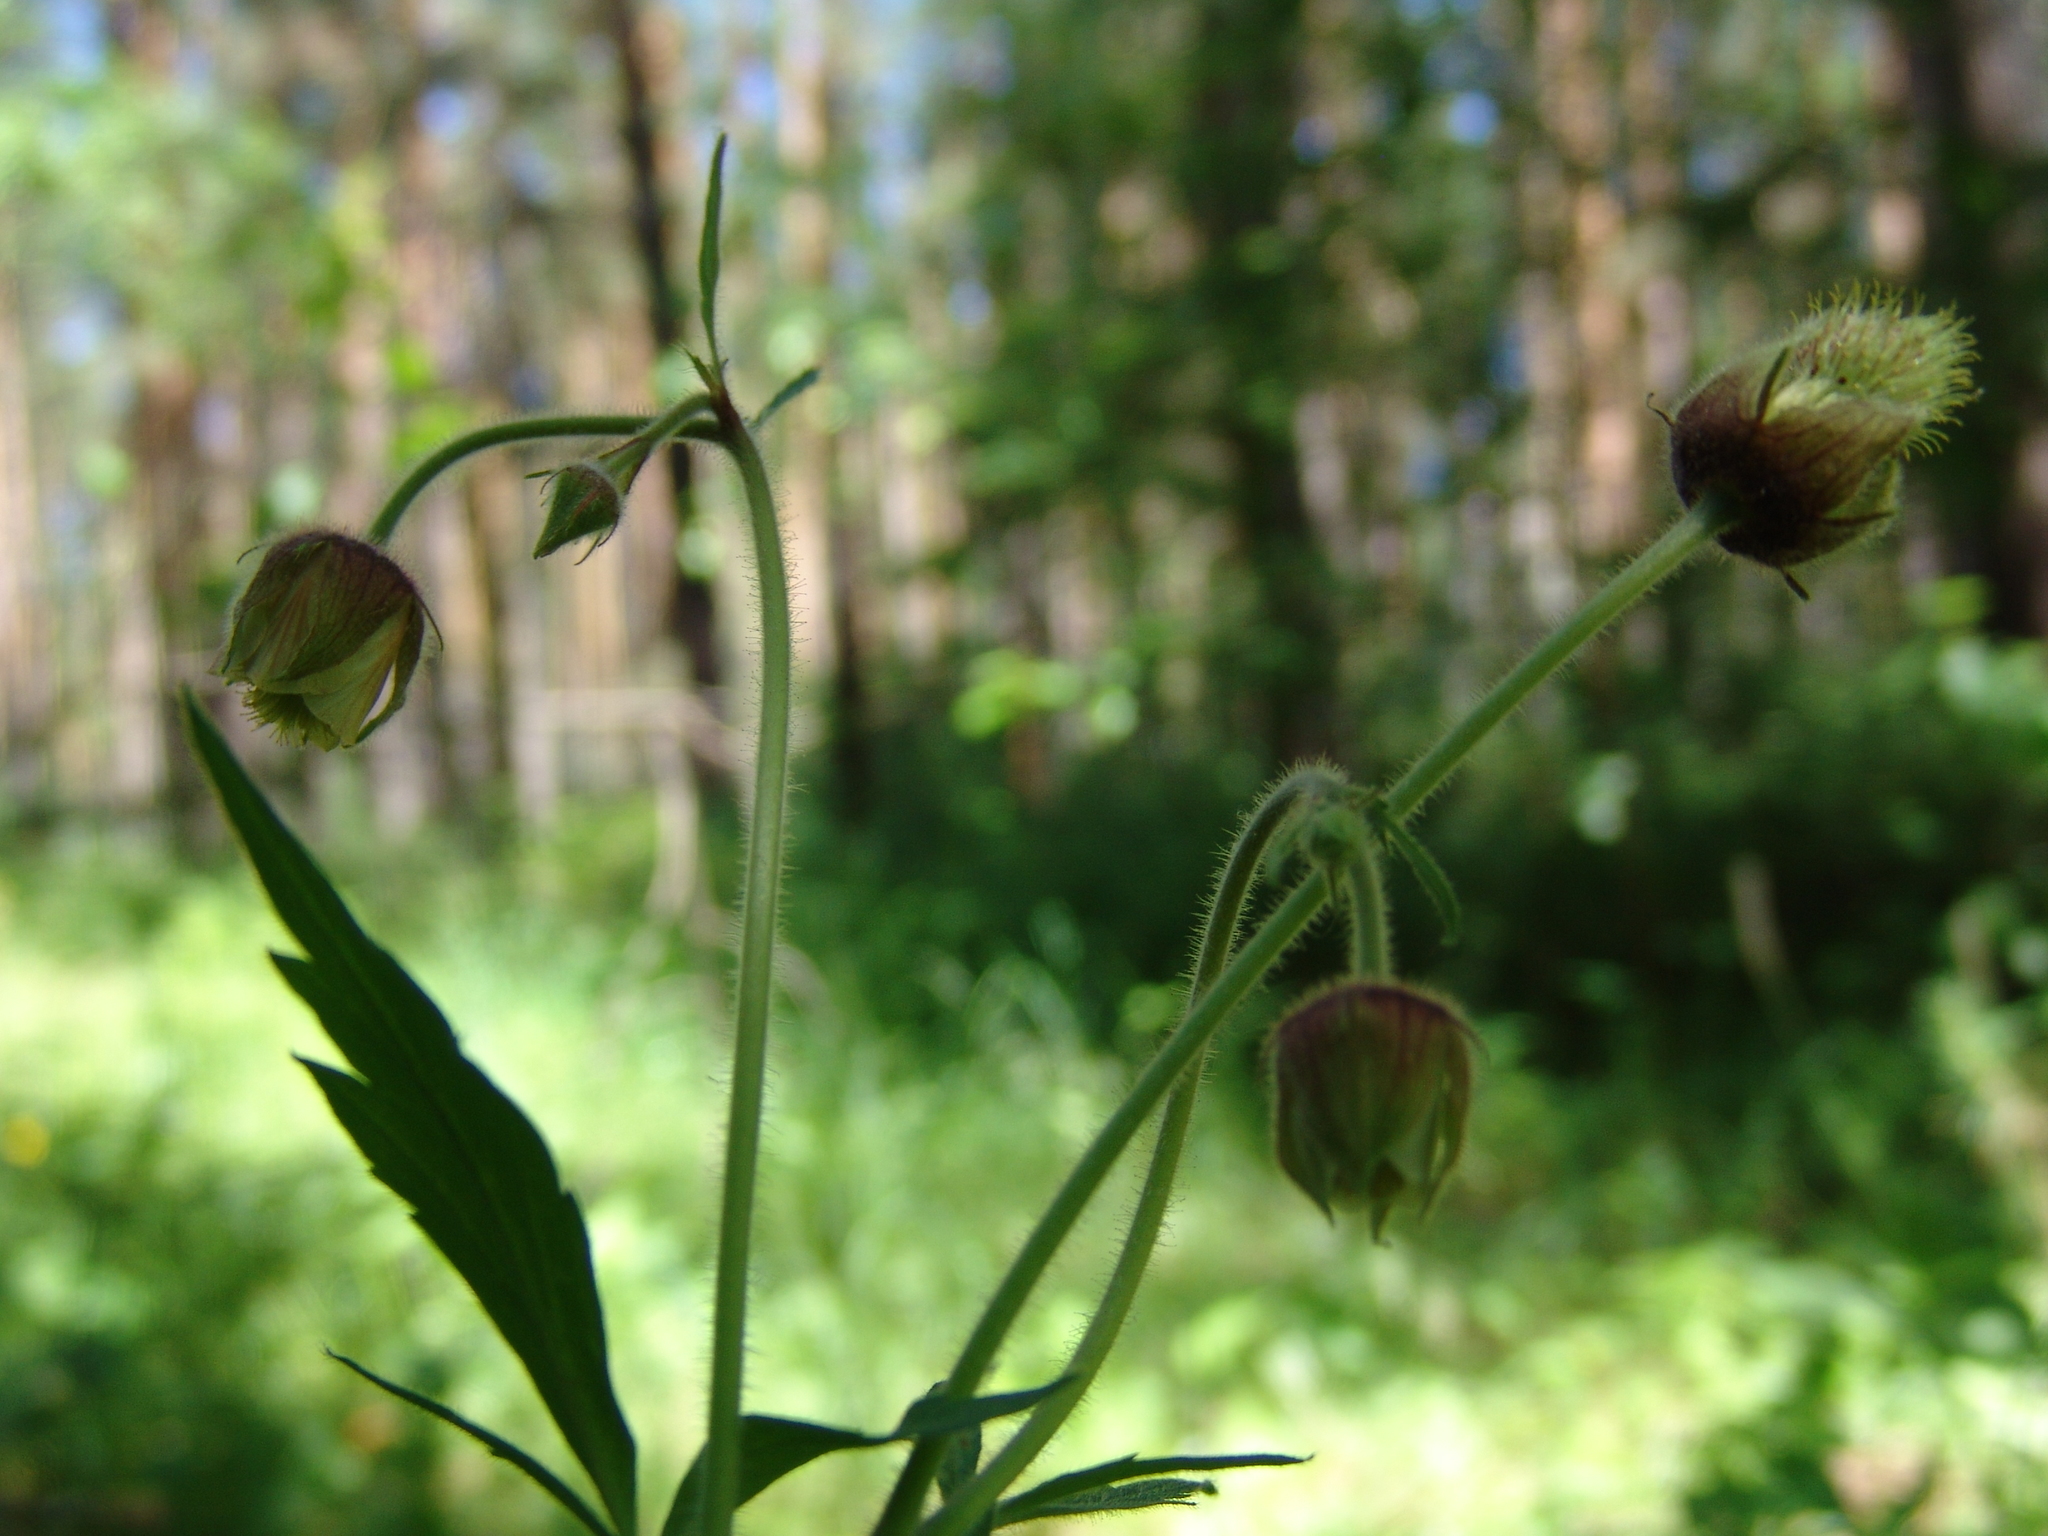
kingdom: Plantae
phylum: Tracheophyta
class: Magnoliopsida
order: Rosales
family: Rosaceae
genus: Geum
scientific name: Geum rivale
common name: Water avens
